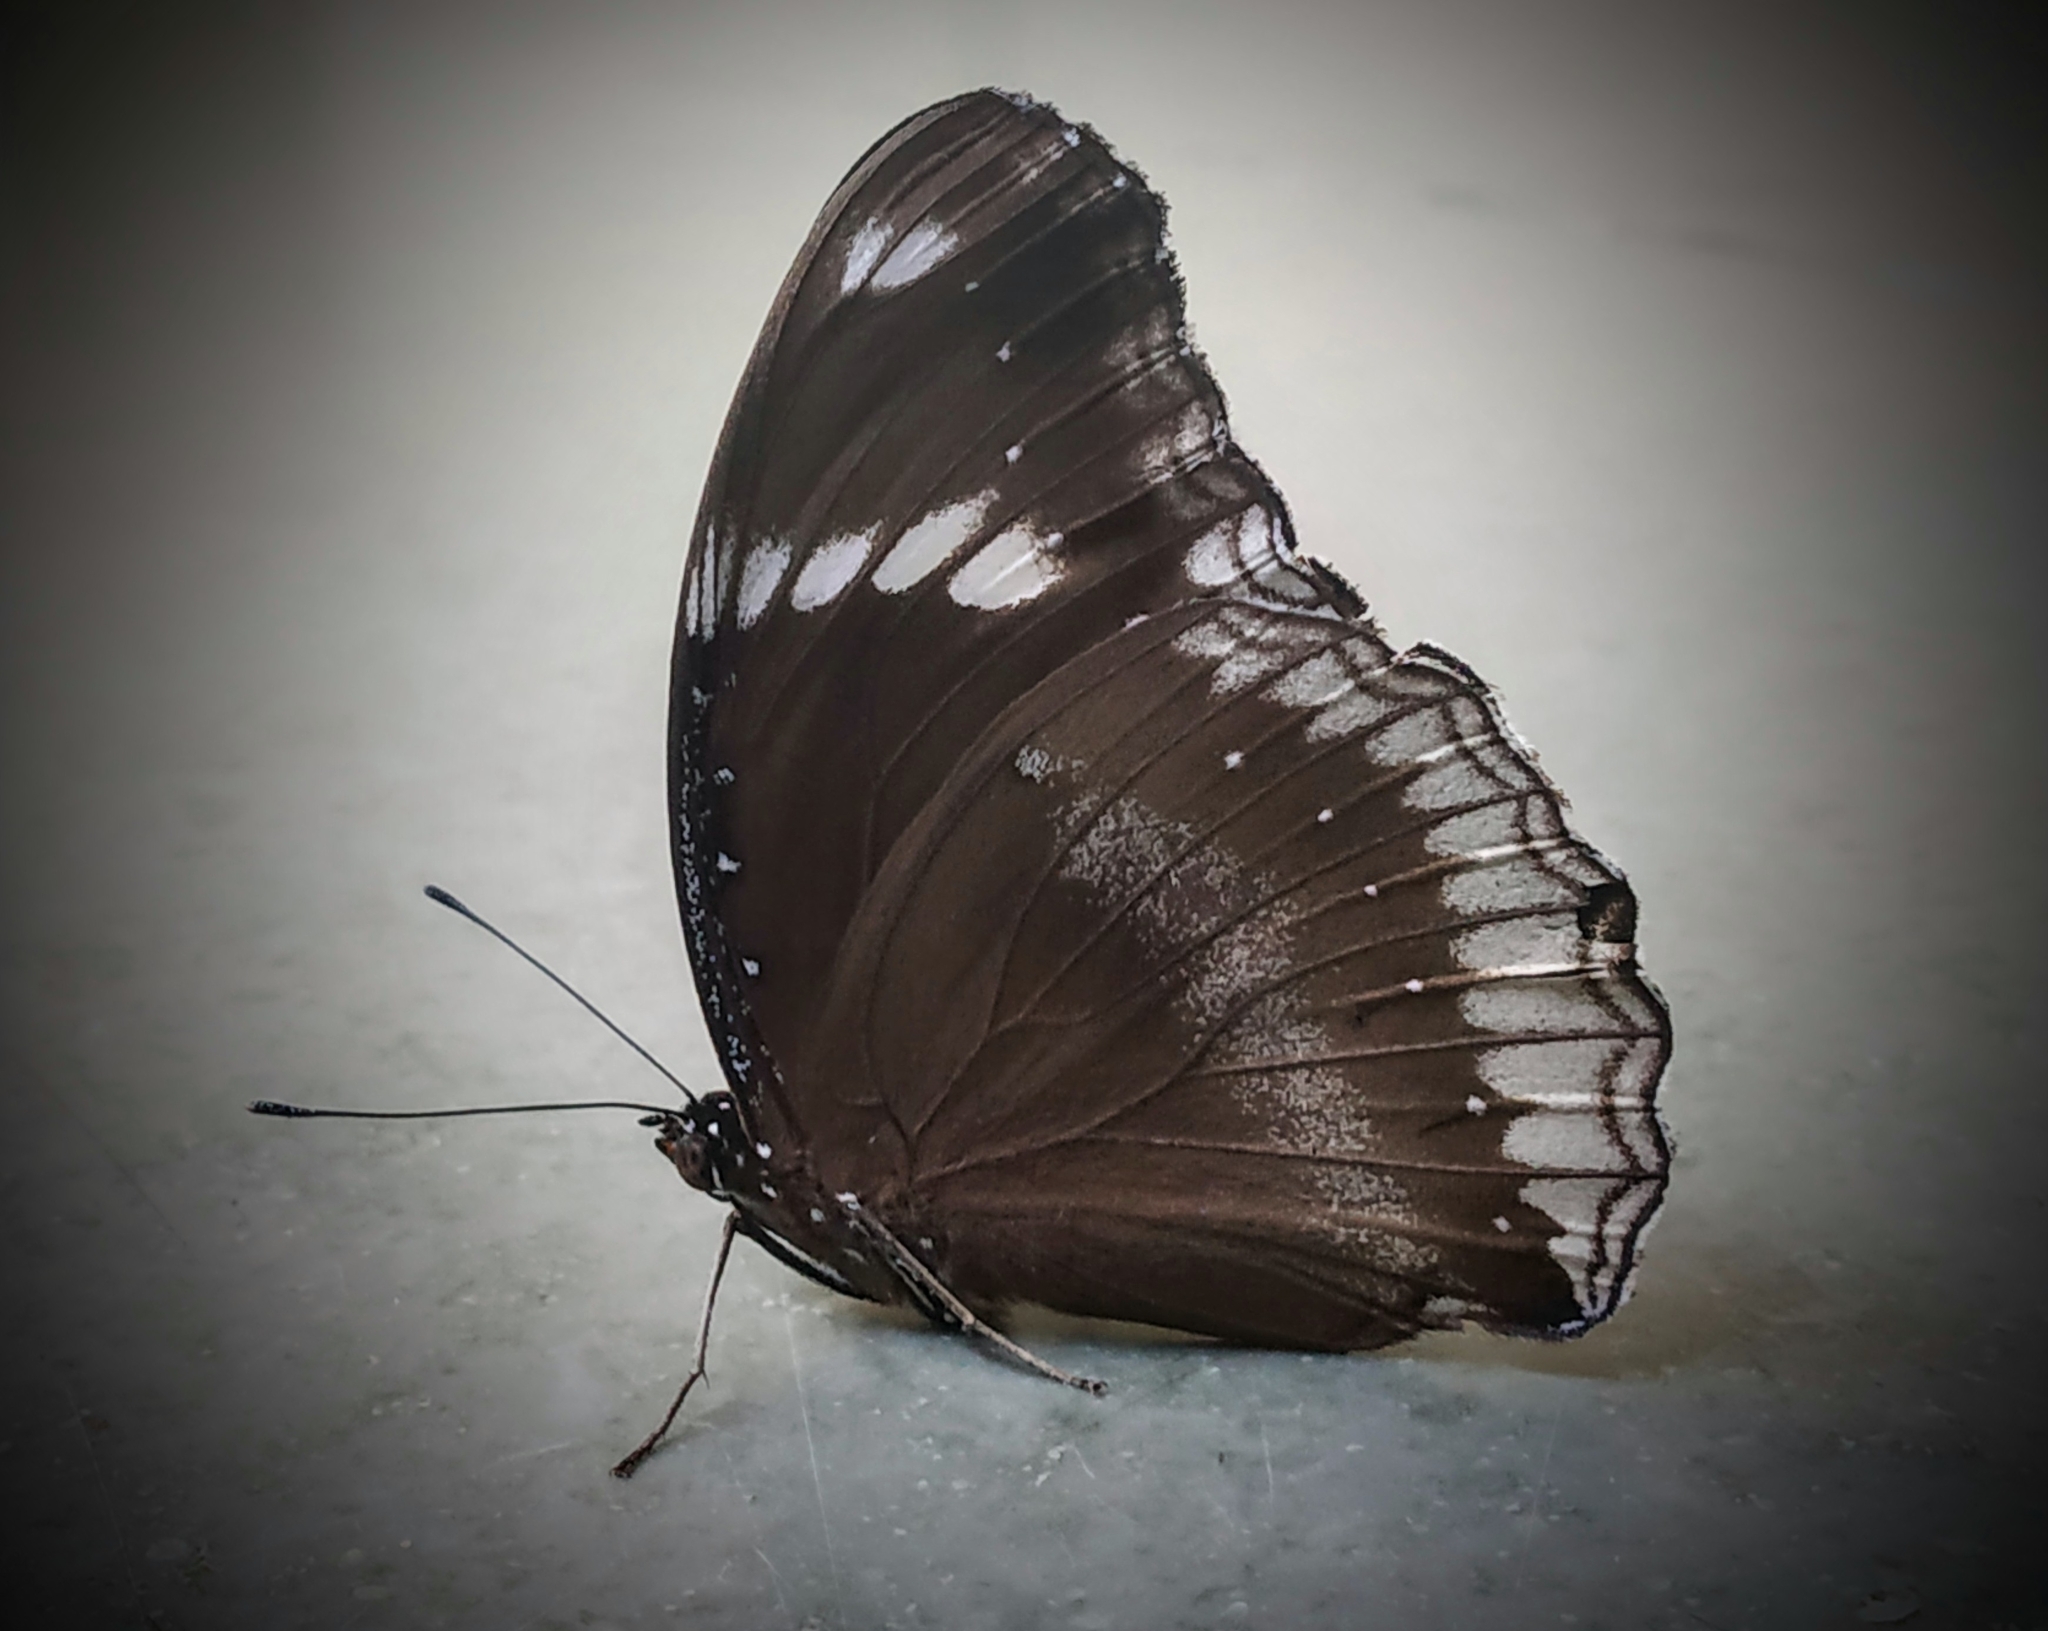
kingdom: Animalia
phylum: Arthropoda
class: Insecta
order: Lepidoptera
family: Nymphalidae
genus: Hypolimnas
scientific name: Hypolimnas bolina
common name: Great eggfly
